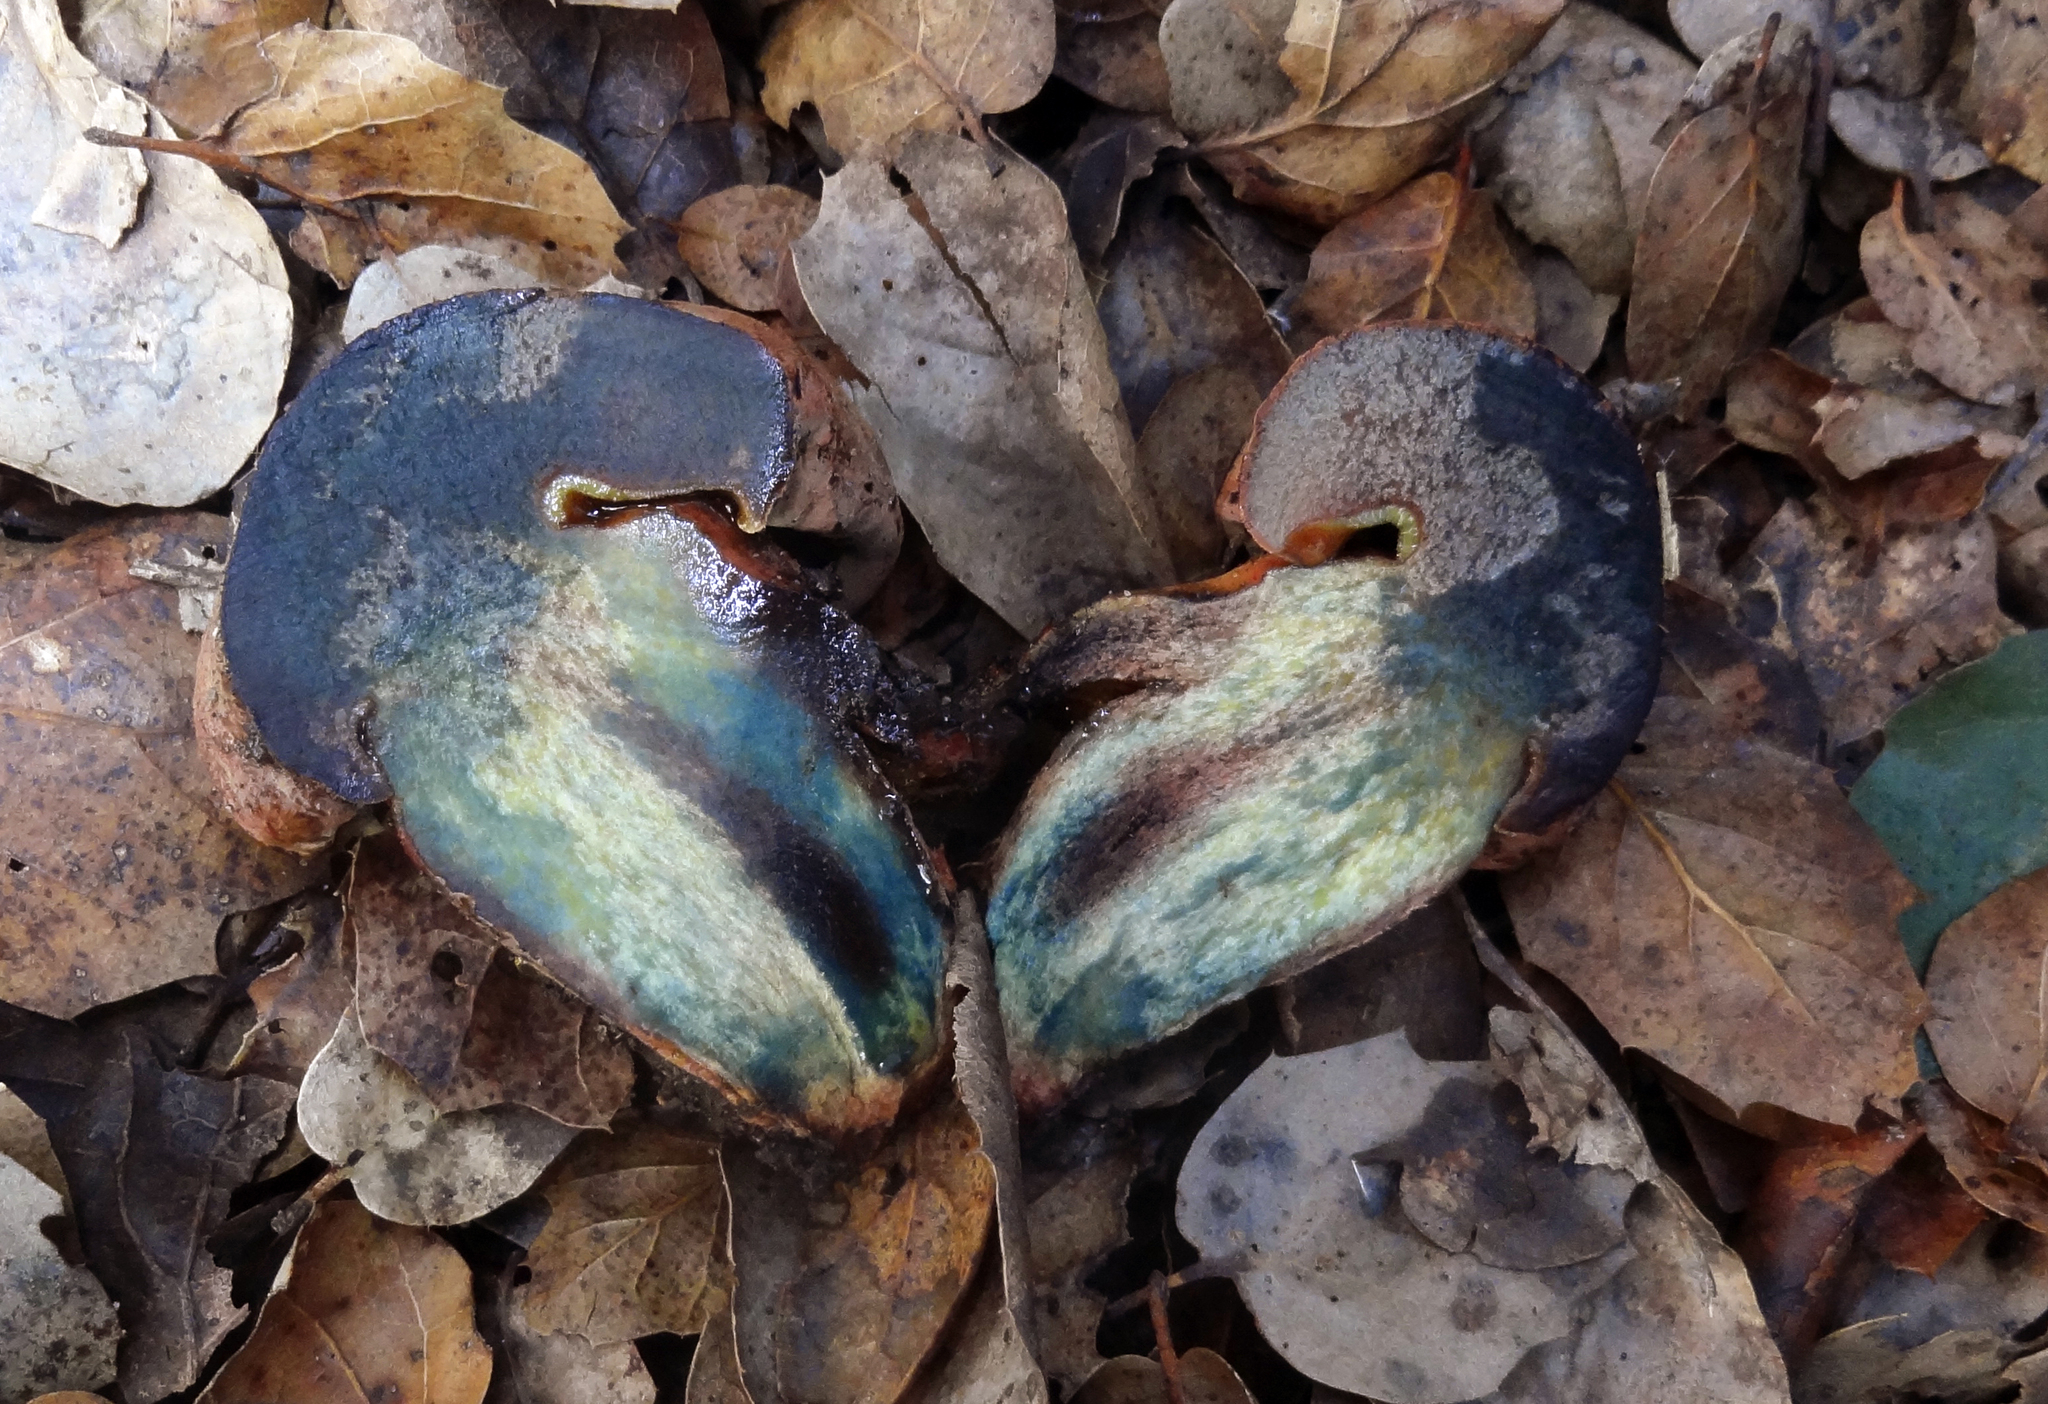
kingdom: Fungi
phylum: Basidiomycota
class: Agaricomycetes
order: Boletales
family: Boletaceae
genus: Suillellus
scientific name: Suillellus amygdalinus
